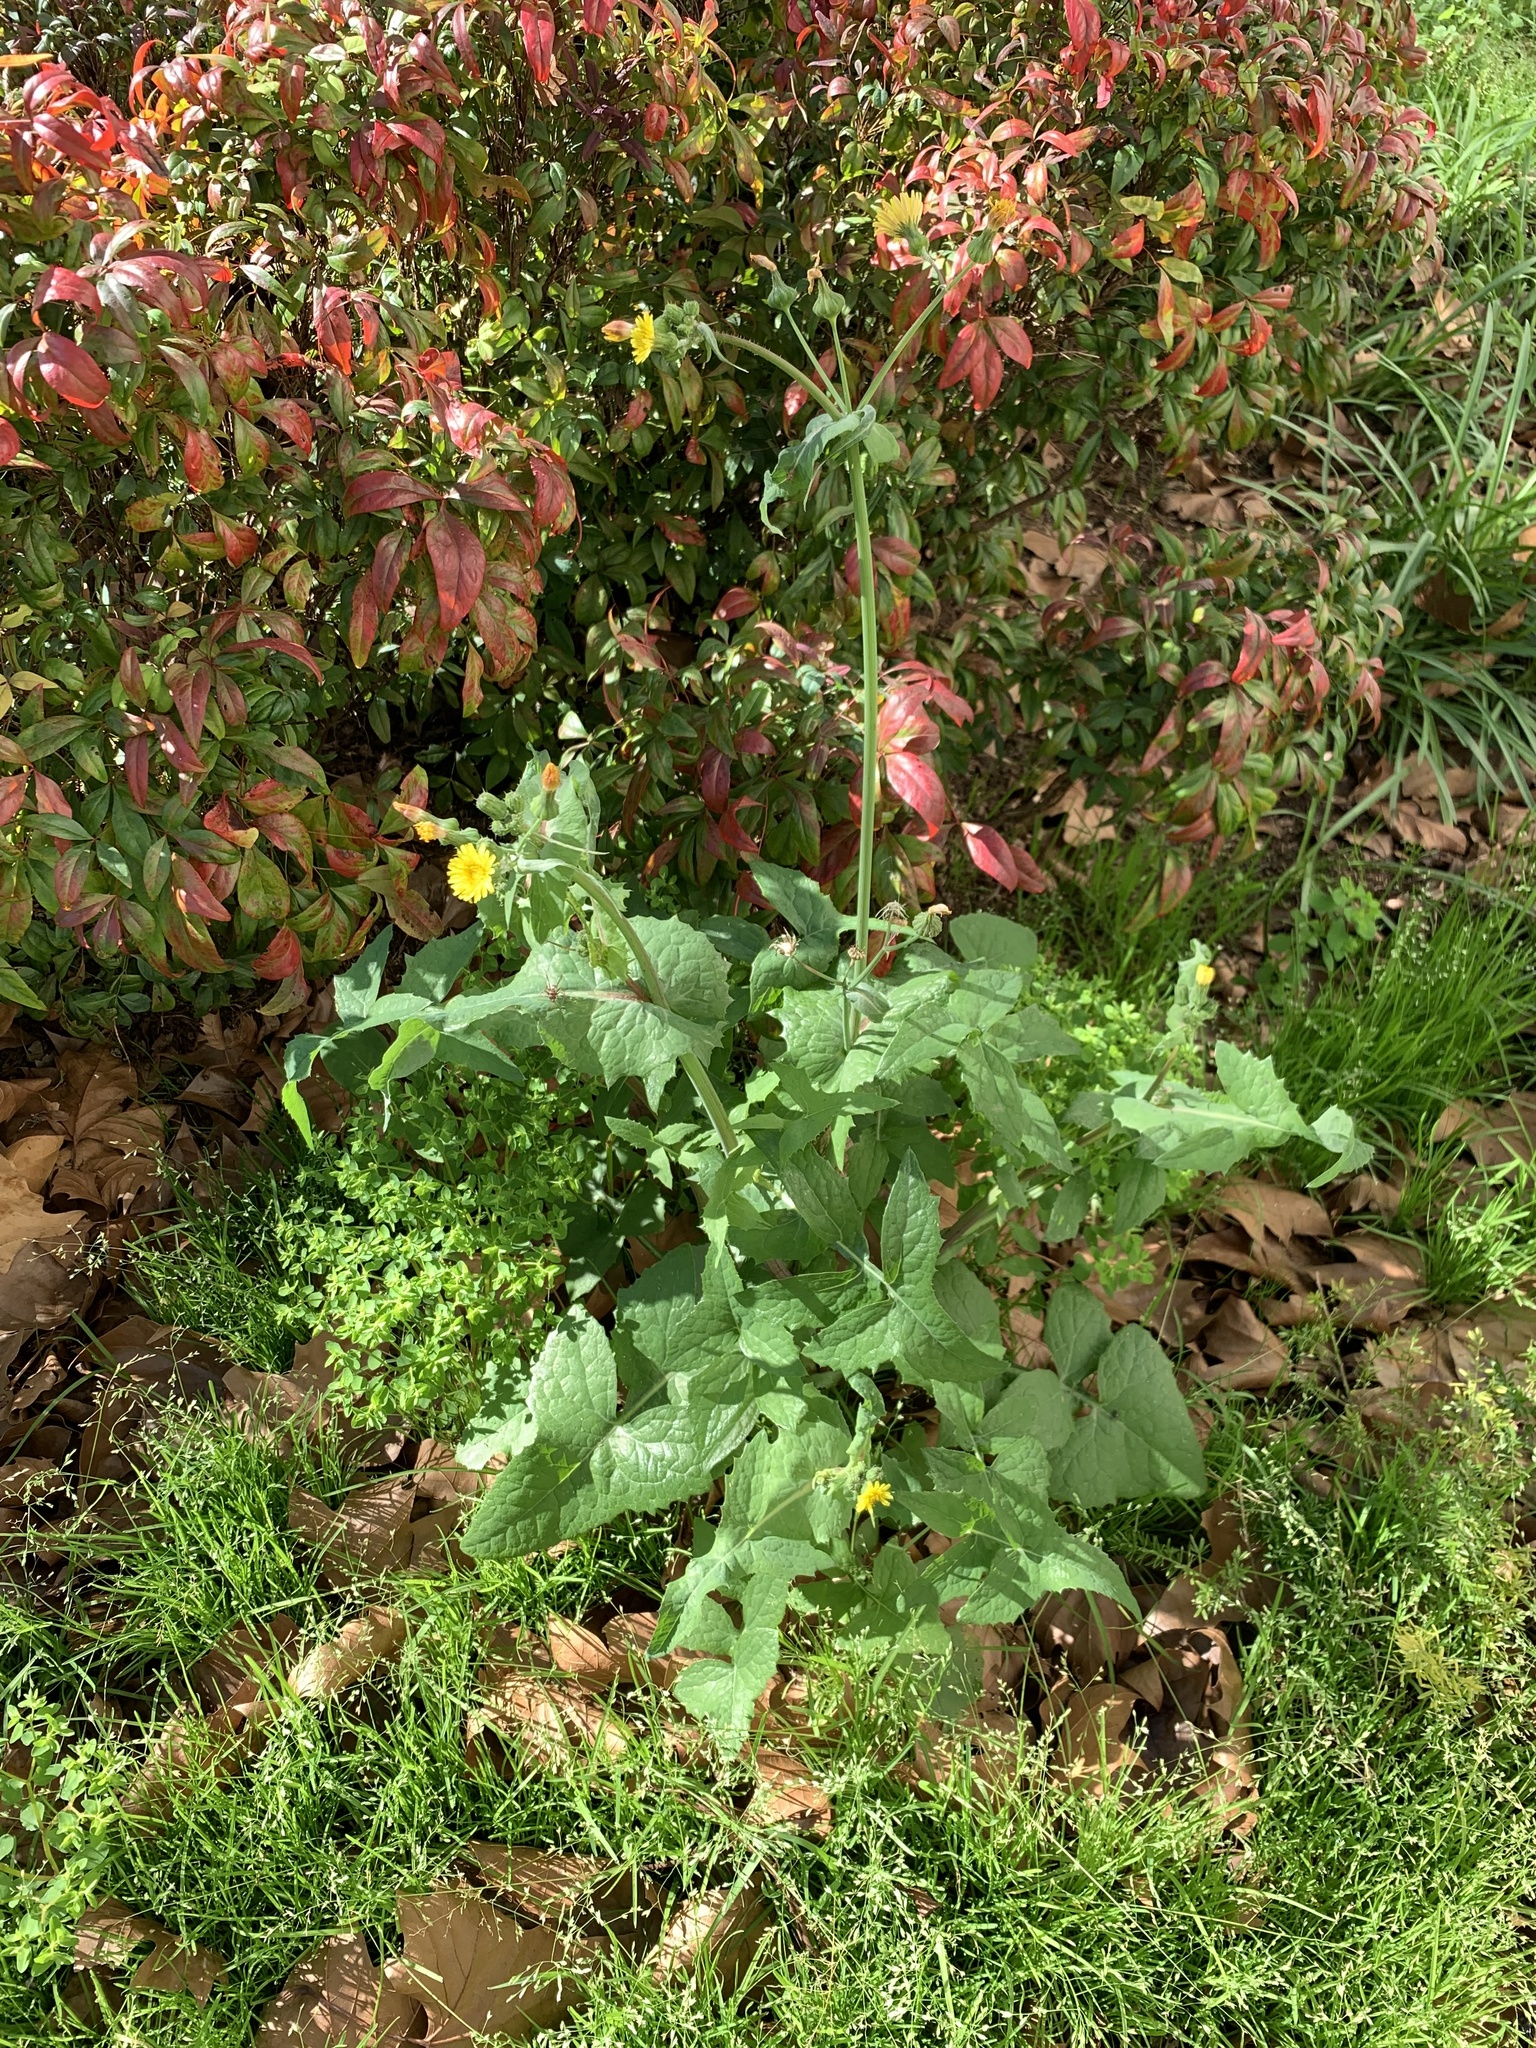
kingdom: Plantae
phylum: Tracheophyta
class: Magnoliopsida
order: Asterales
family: Asteraceae
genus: Sonchus
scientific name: Sonchus oleraceus
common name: Common sowthistle
